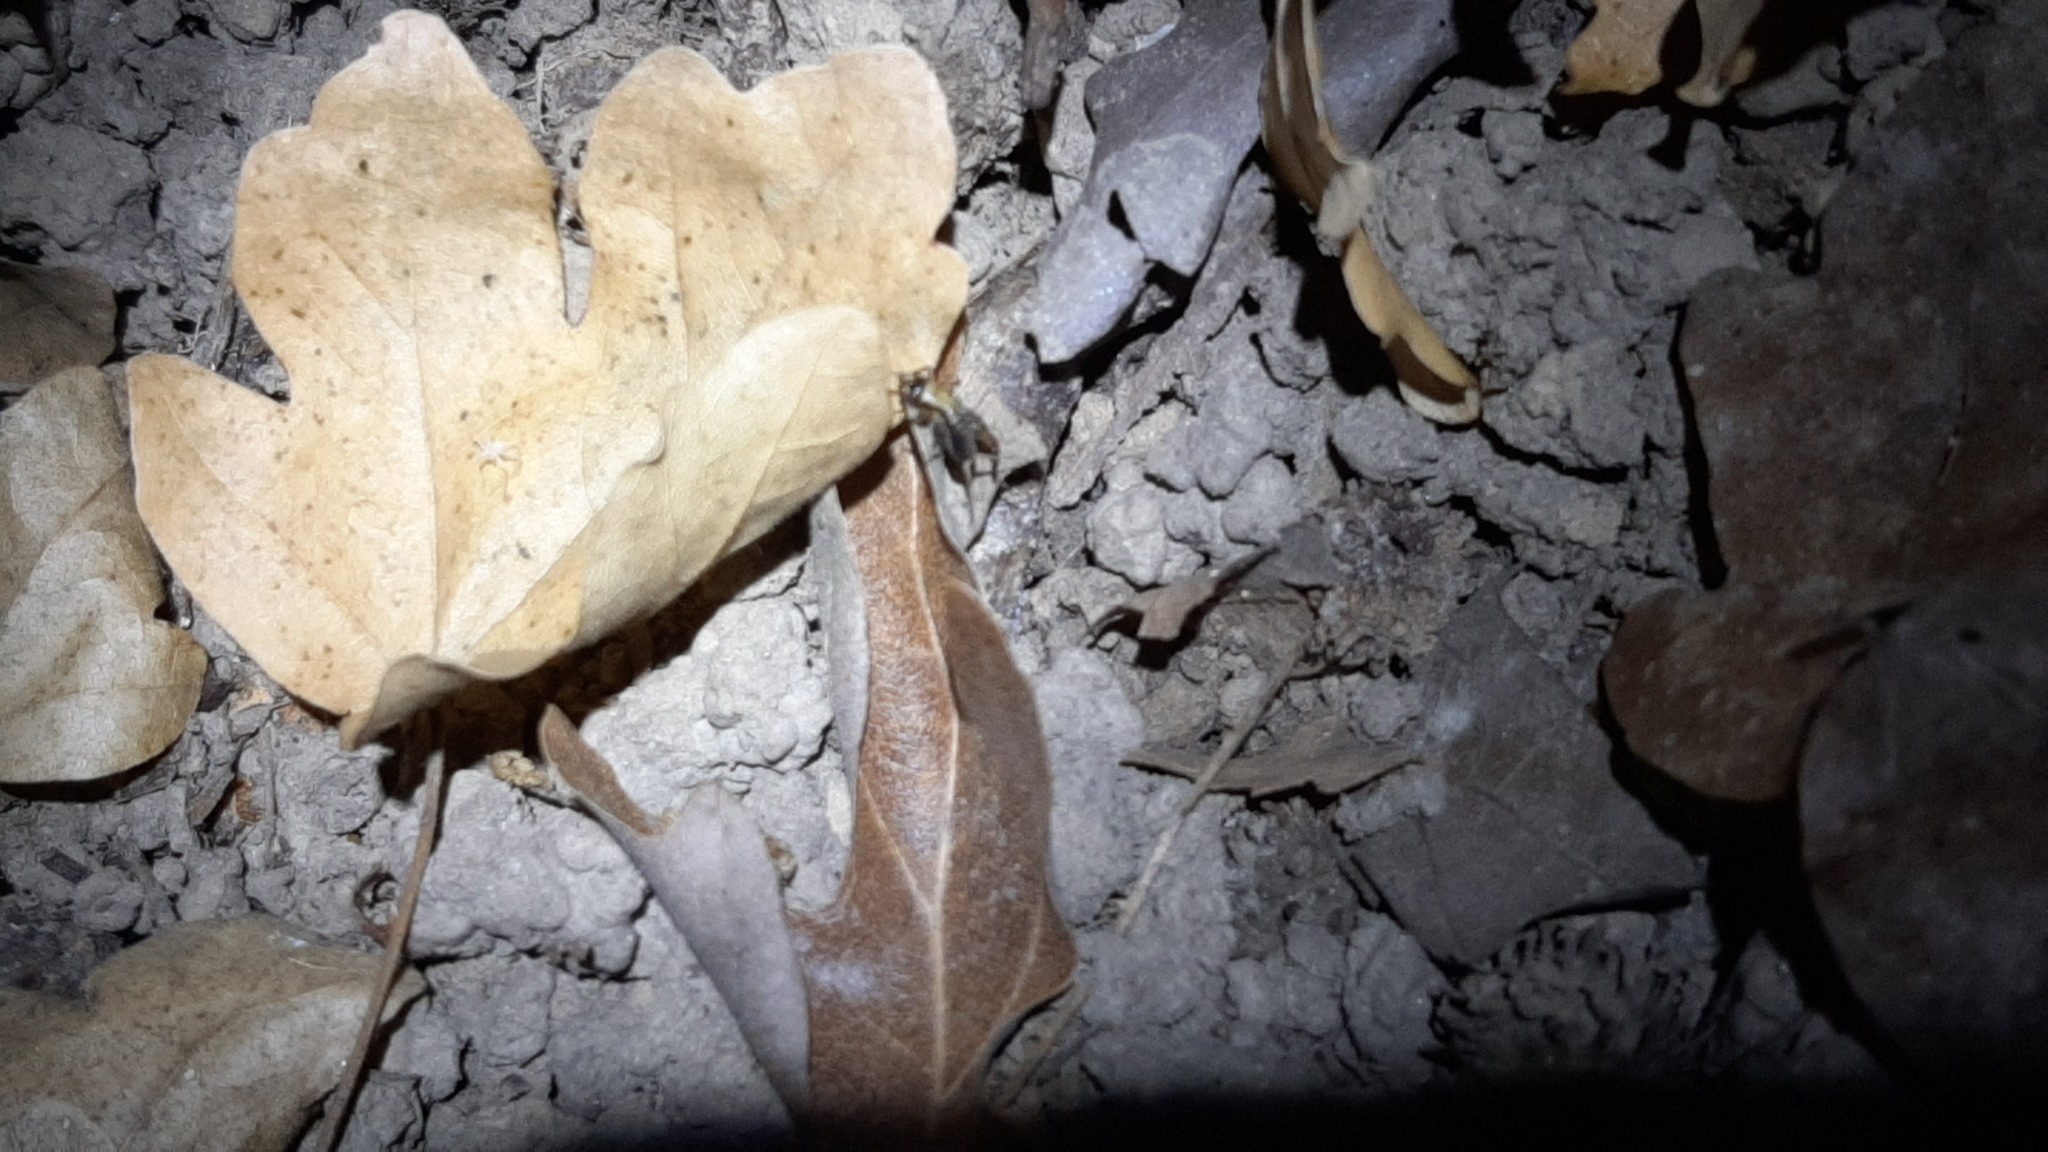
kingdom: Animalia
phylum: Arthropoda
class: Insecta
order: Orthoptera
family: Trigonidiidae
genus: Nemobius
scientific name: Nemobius sylvestris
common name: Wood-cricket
